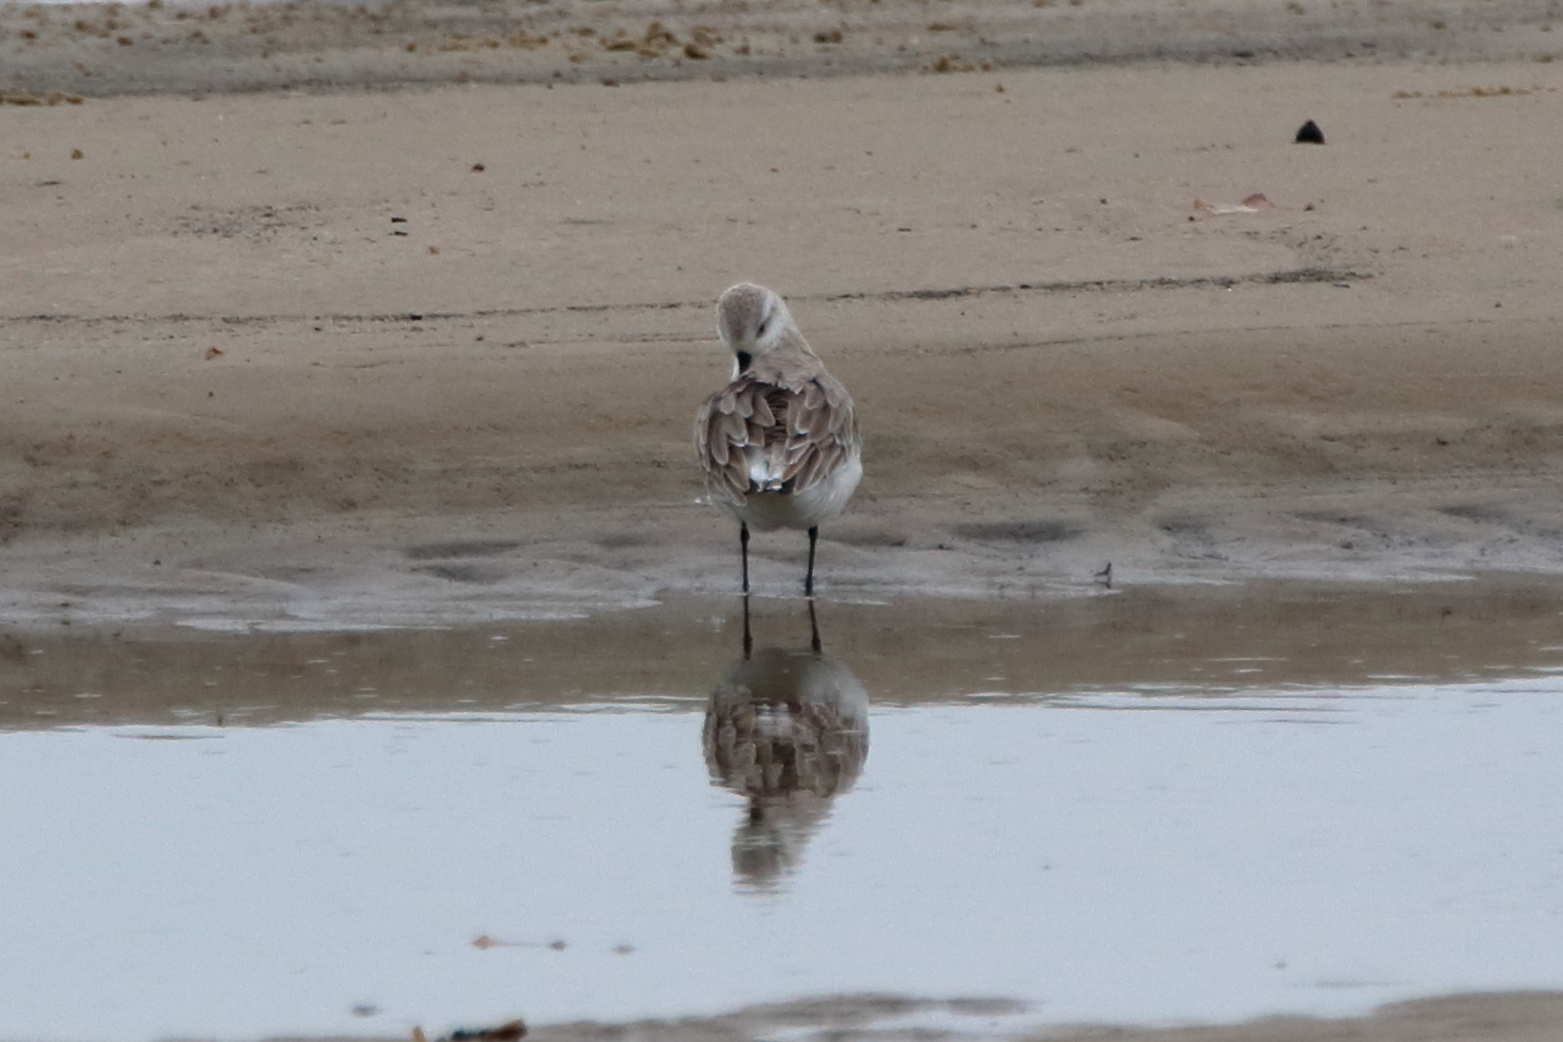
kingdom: Animalia
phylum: Chordata
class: Aves
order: Charadriiformes
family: Scolopacidae
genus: Calidris
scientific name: Calidris alba
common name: Sanderling
